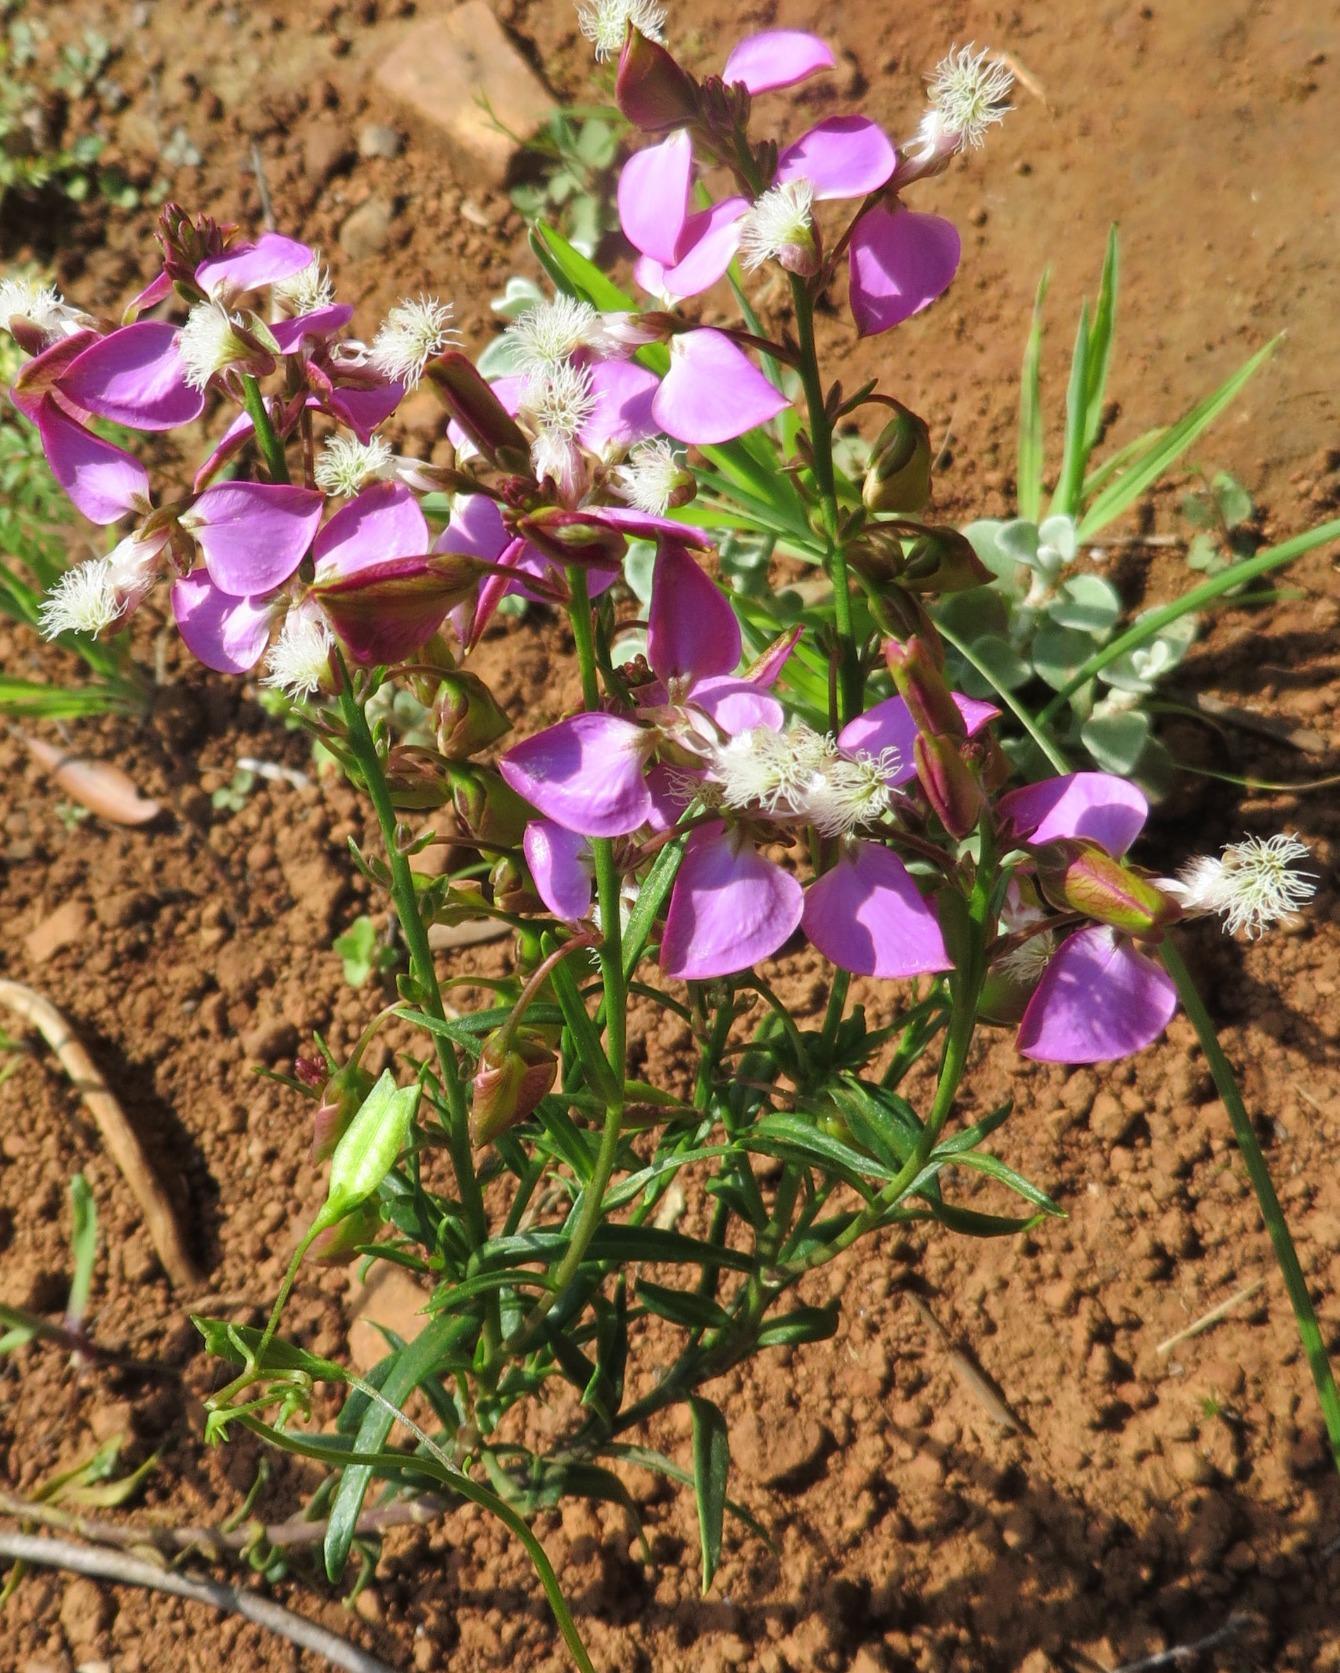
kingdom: Plantae
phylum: Tracheophyta
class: Magnoliopsida
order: Fabales
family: Polygalaceae
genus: Polygala
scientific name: Polygala bracteolata
